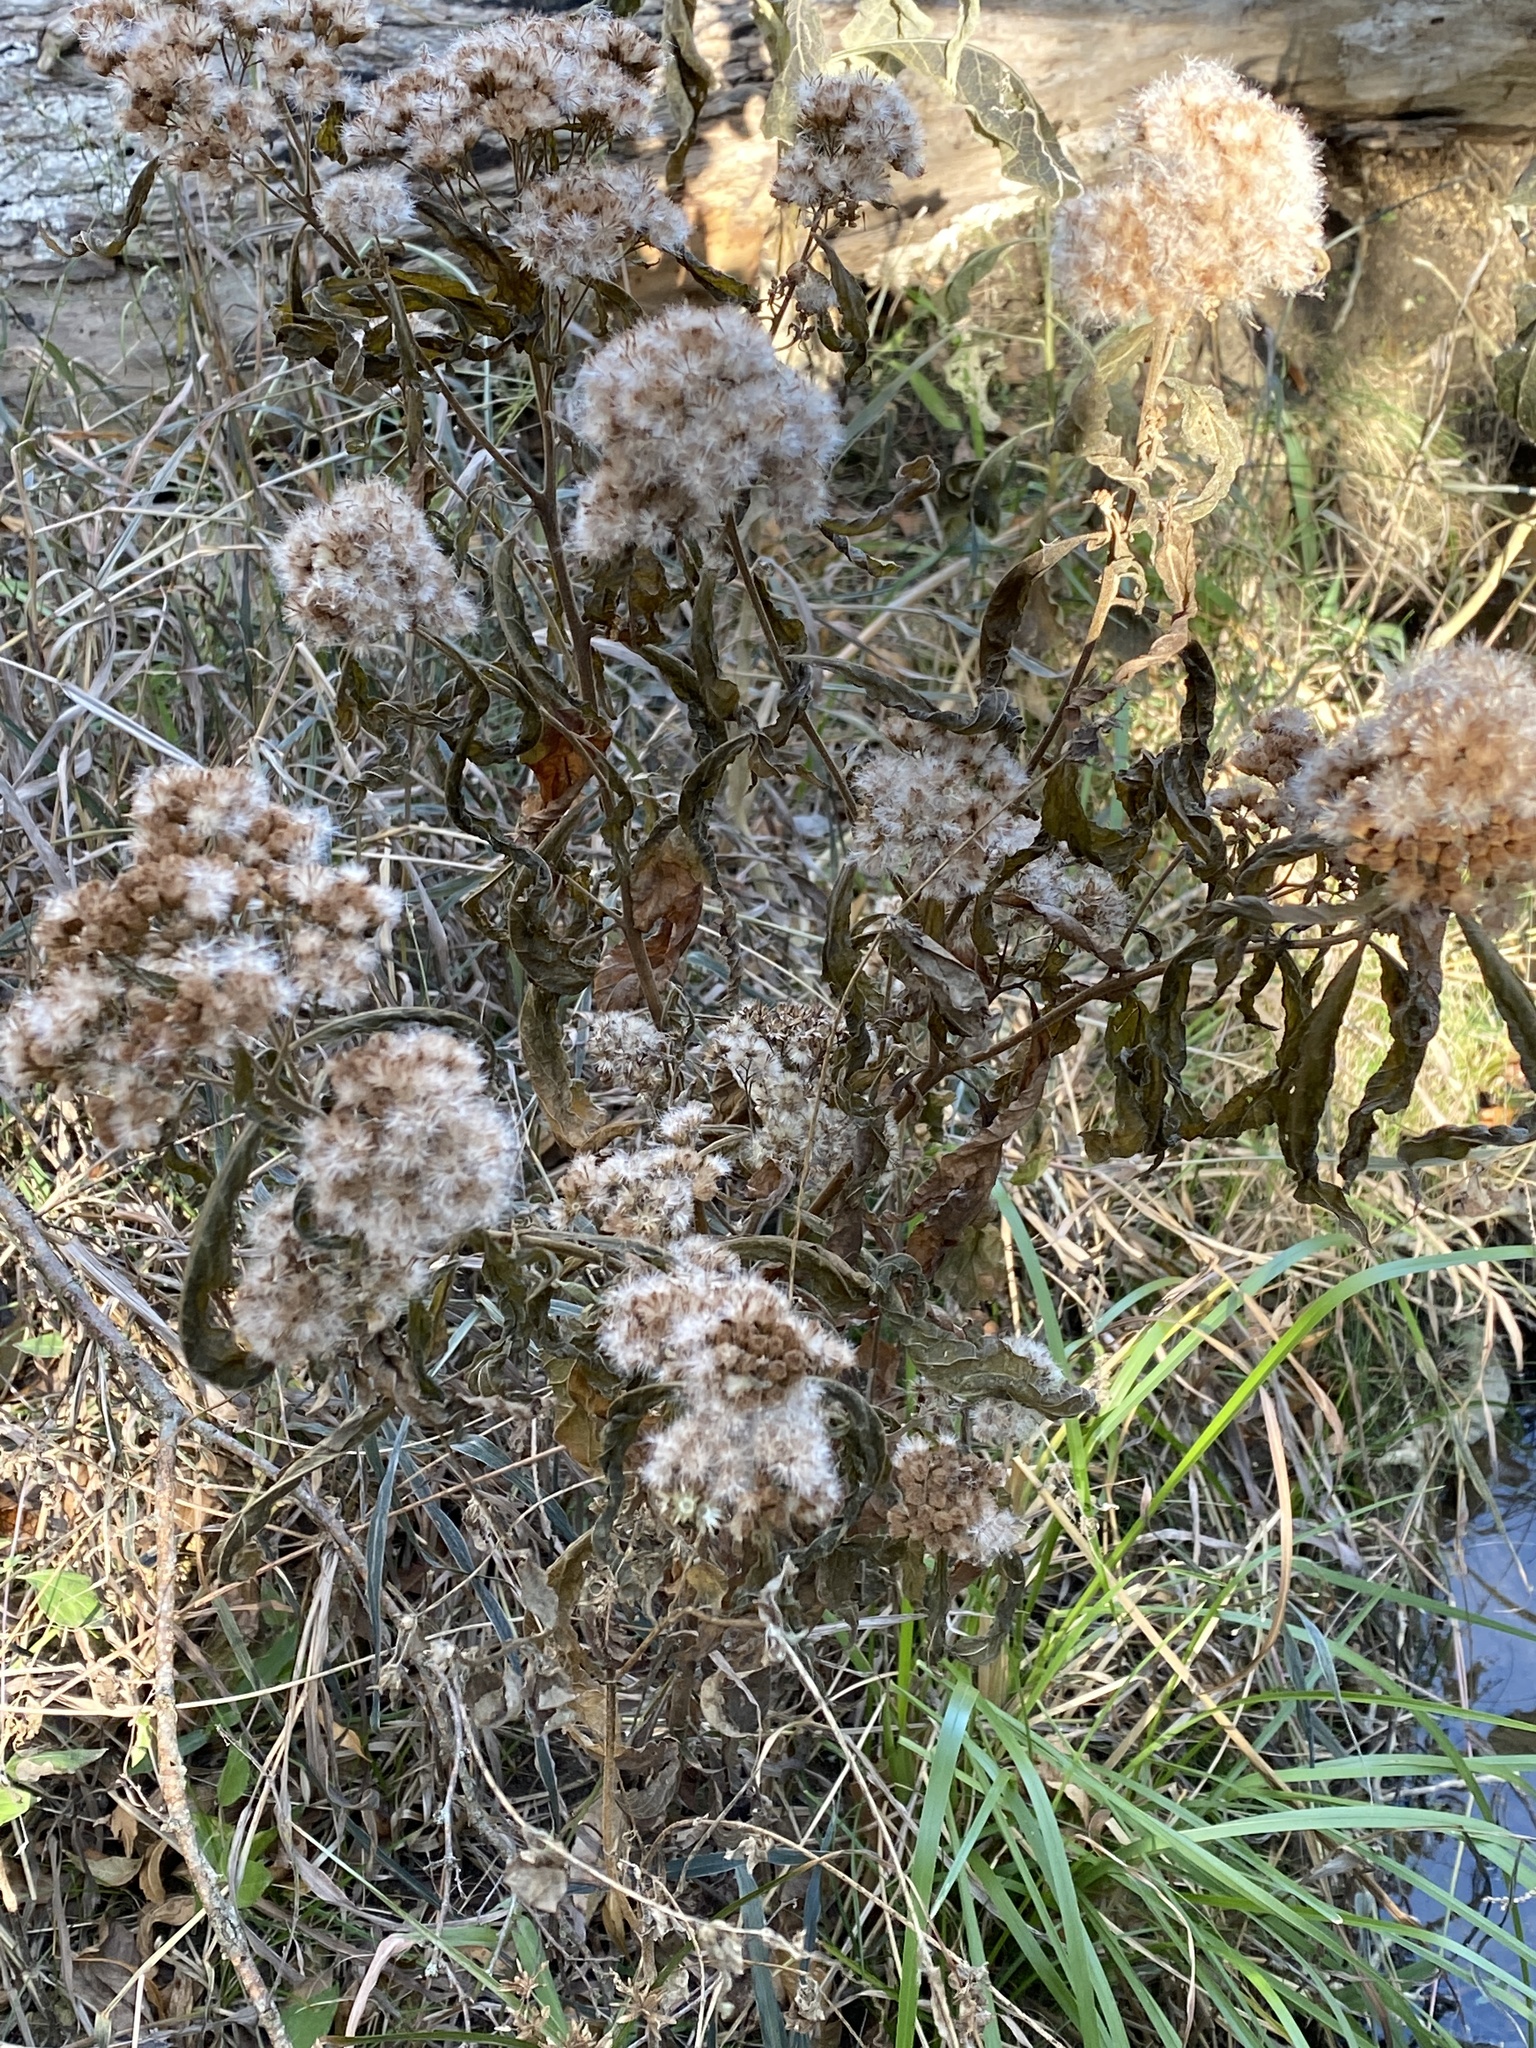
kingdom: Plantae
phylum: Tracheophyta
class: Magnoliopsida
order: Asterales
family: Asteraceae
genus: Pluchea
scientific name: Pluchea odorata
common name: Saltmarsh fleabane
